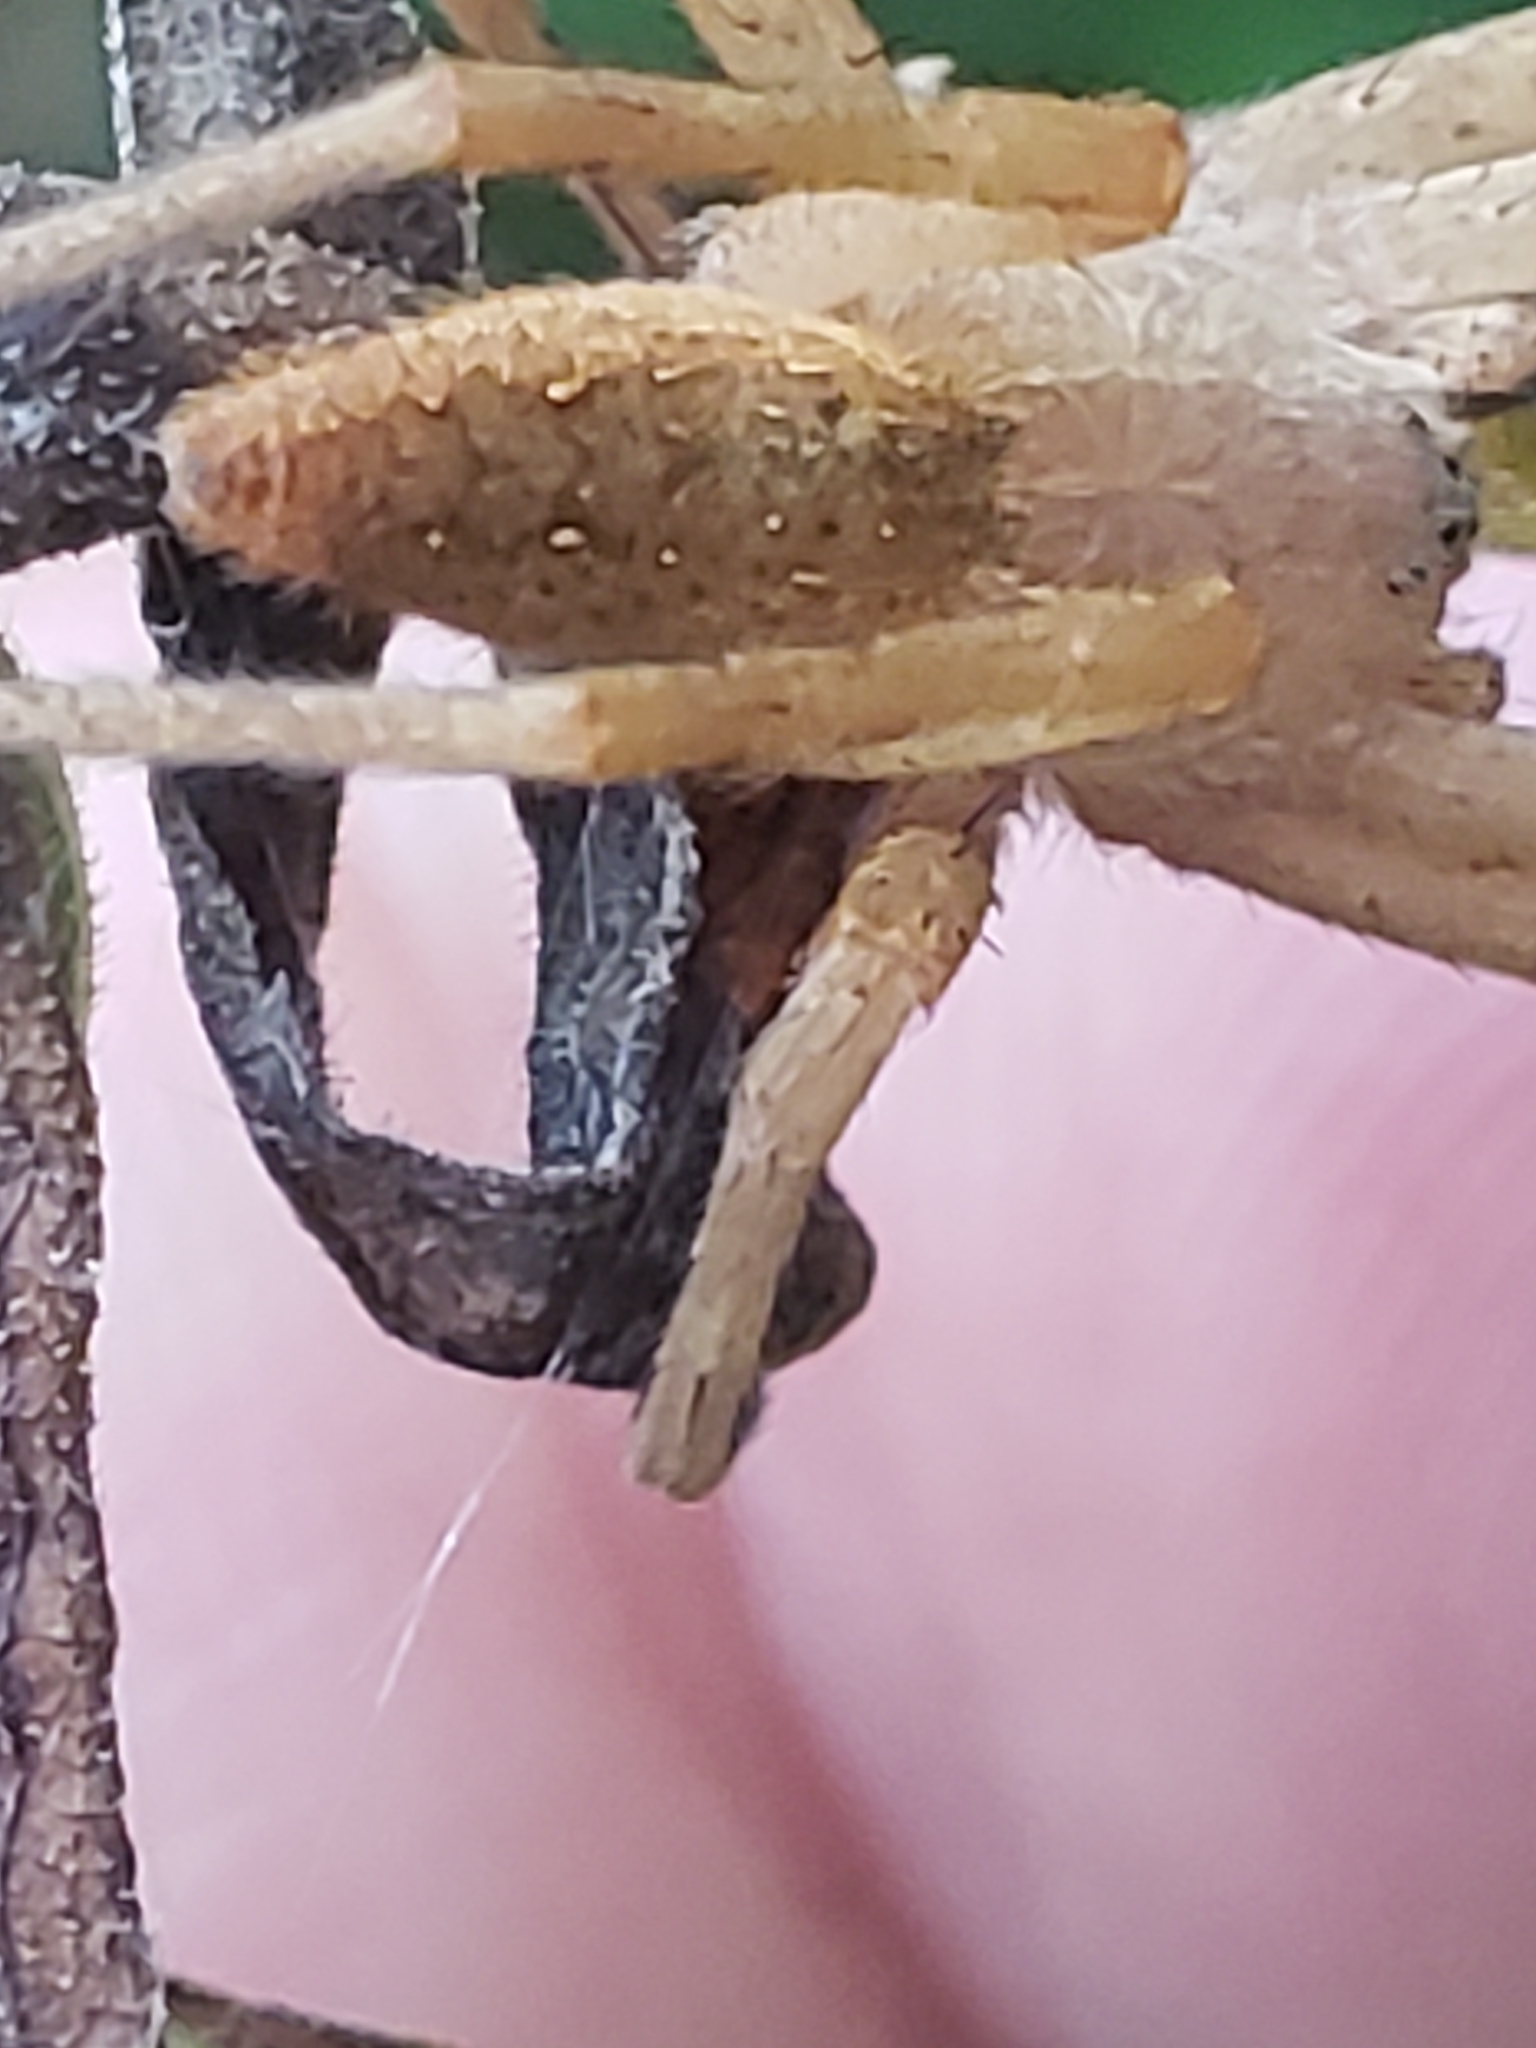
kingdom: Animalia
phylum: Arthropoda
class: Arachnida
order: Araneae
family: Pisauridae
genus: Pisaurina
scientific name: Pisaurina mira
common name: American nursery web spider
